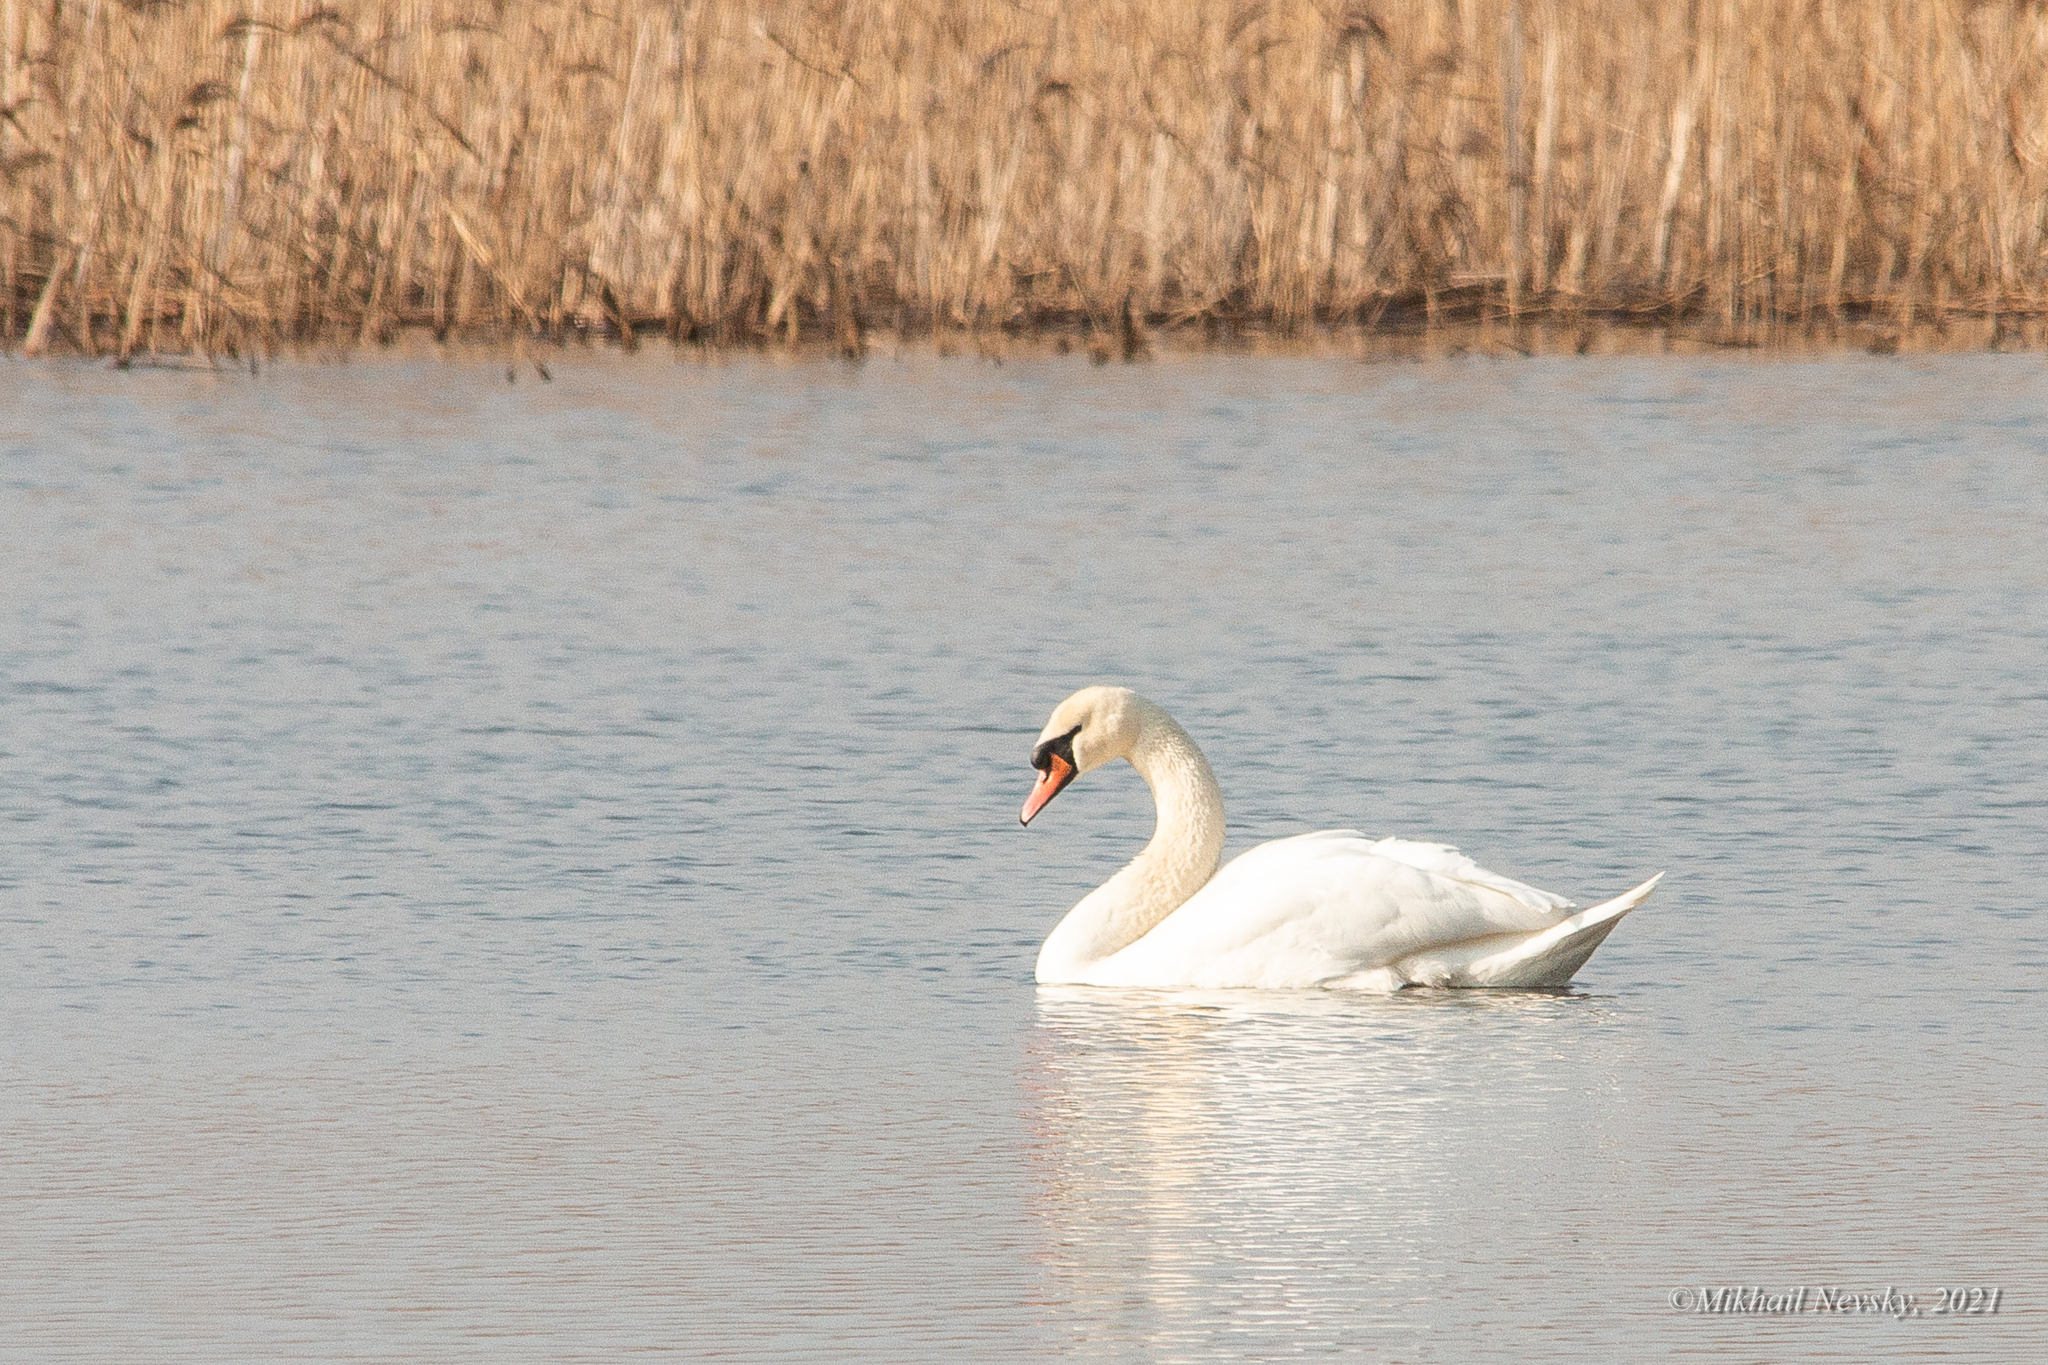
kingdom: Animalia
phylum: Chordata
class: Aves
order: Anseriformes
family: Anatidae
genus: Cygnus
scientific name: Cygnus olor
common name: Mute swan
